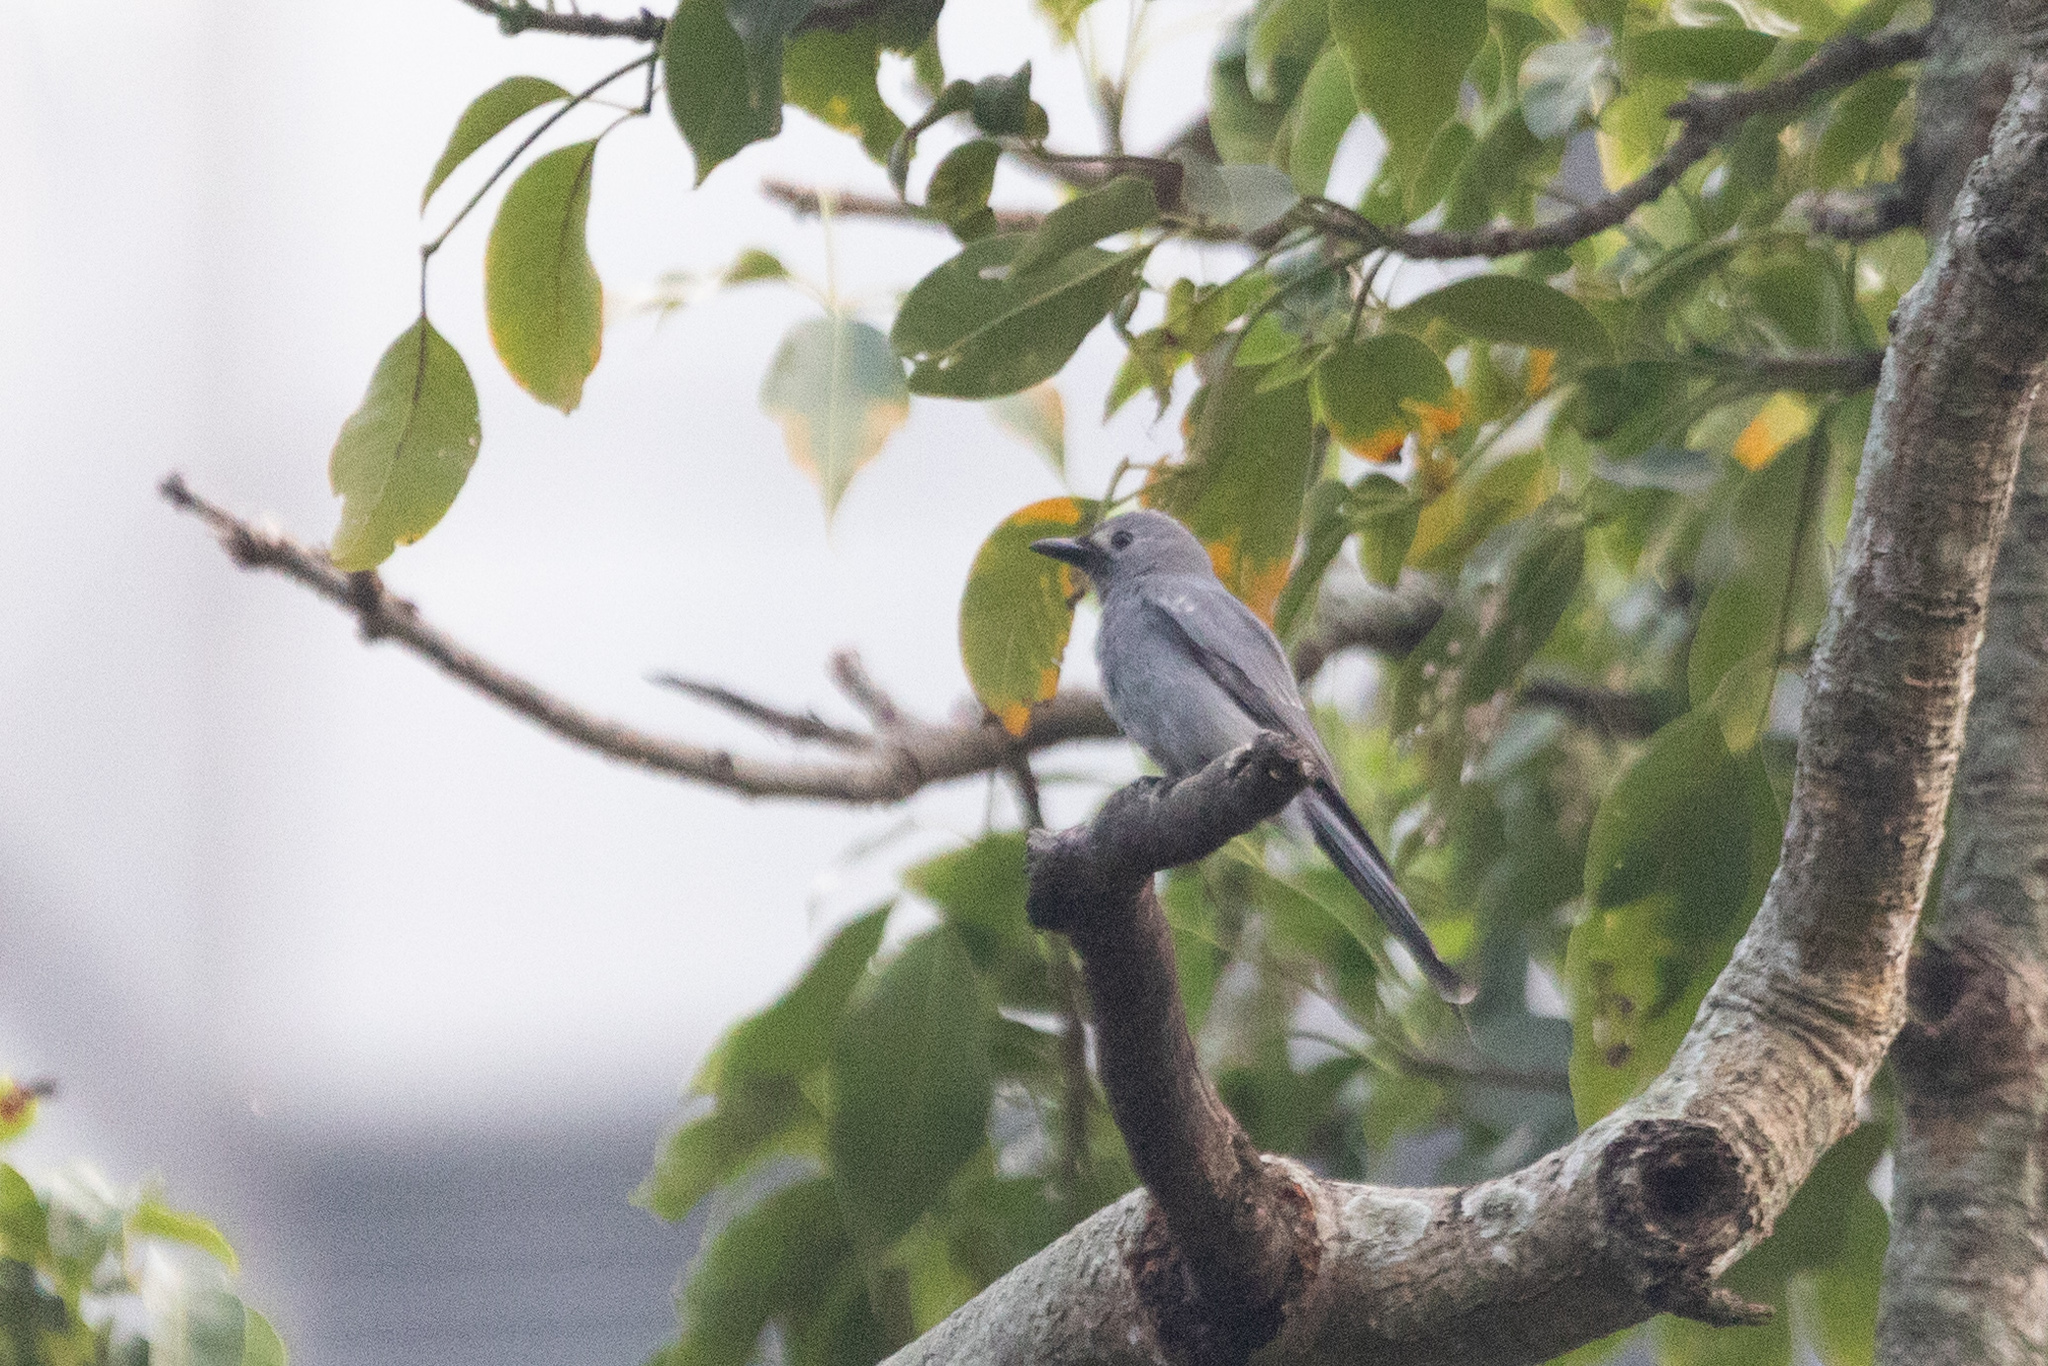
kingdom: Animalia
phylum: Chordata
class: Aves
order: Passeriformes
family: Dicruridae
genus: Dicrurus
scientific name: Dicrurus leucophaeus
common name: Ashy drongo
